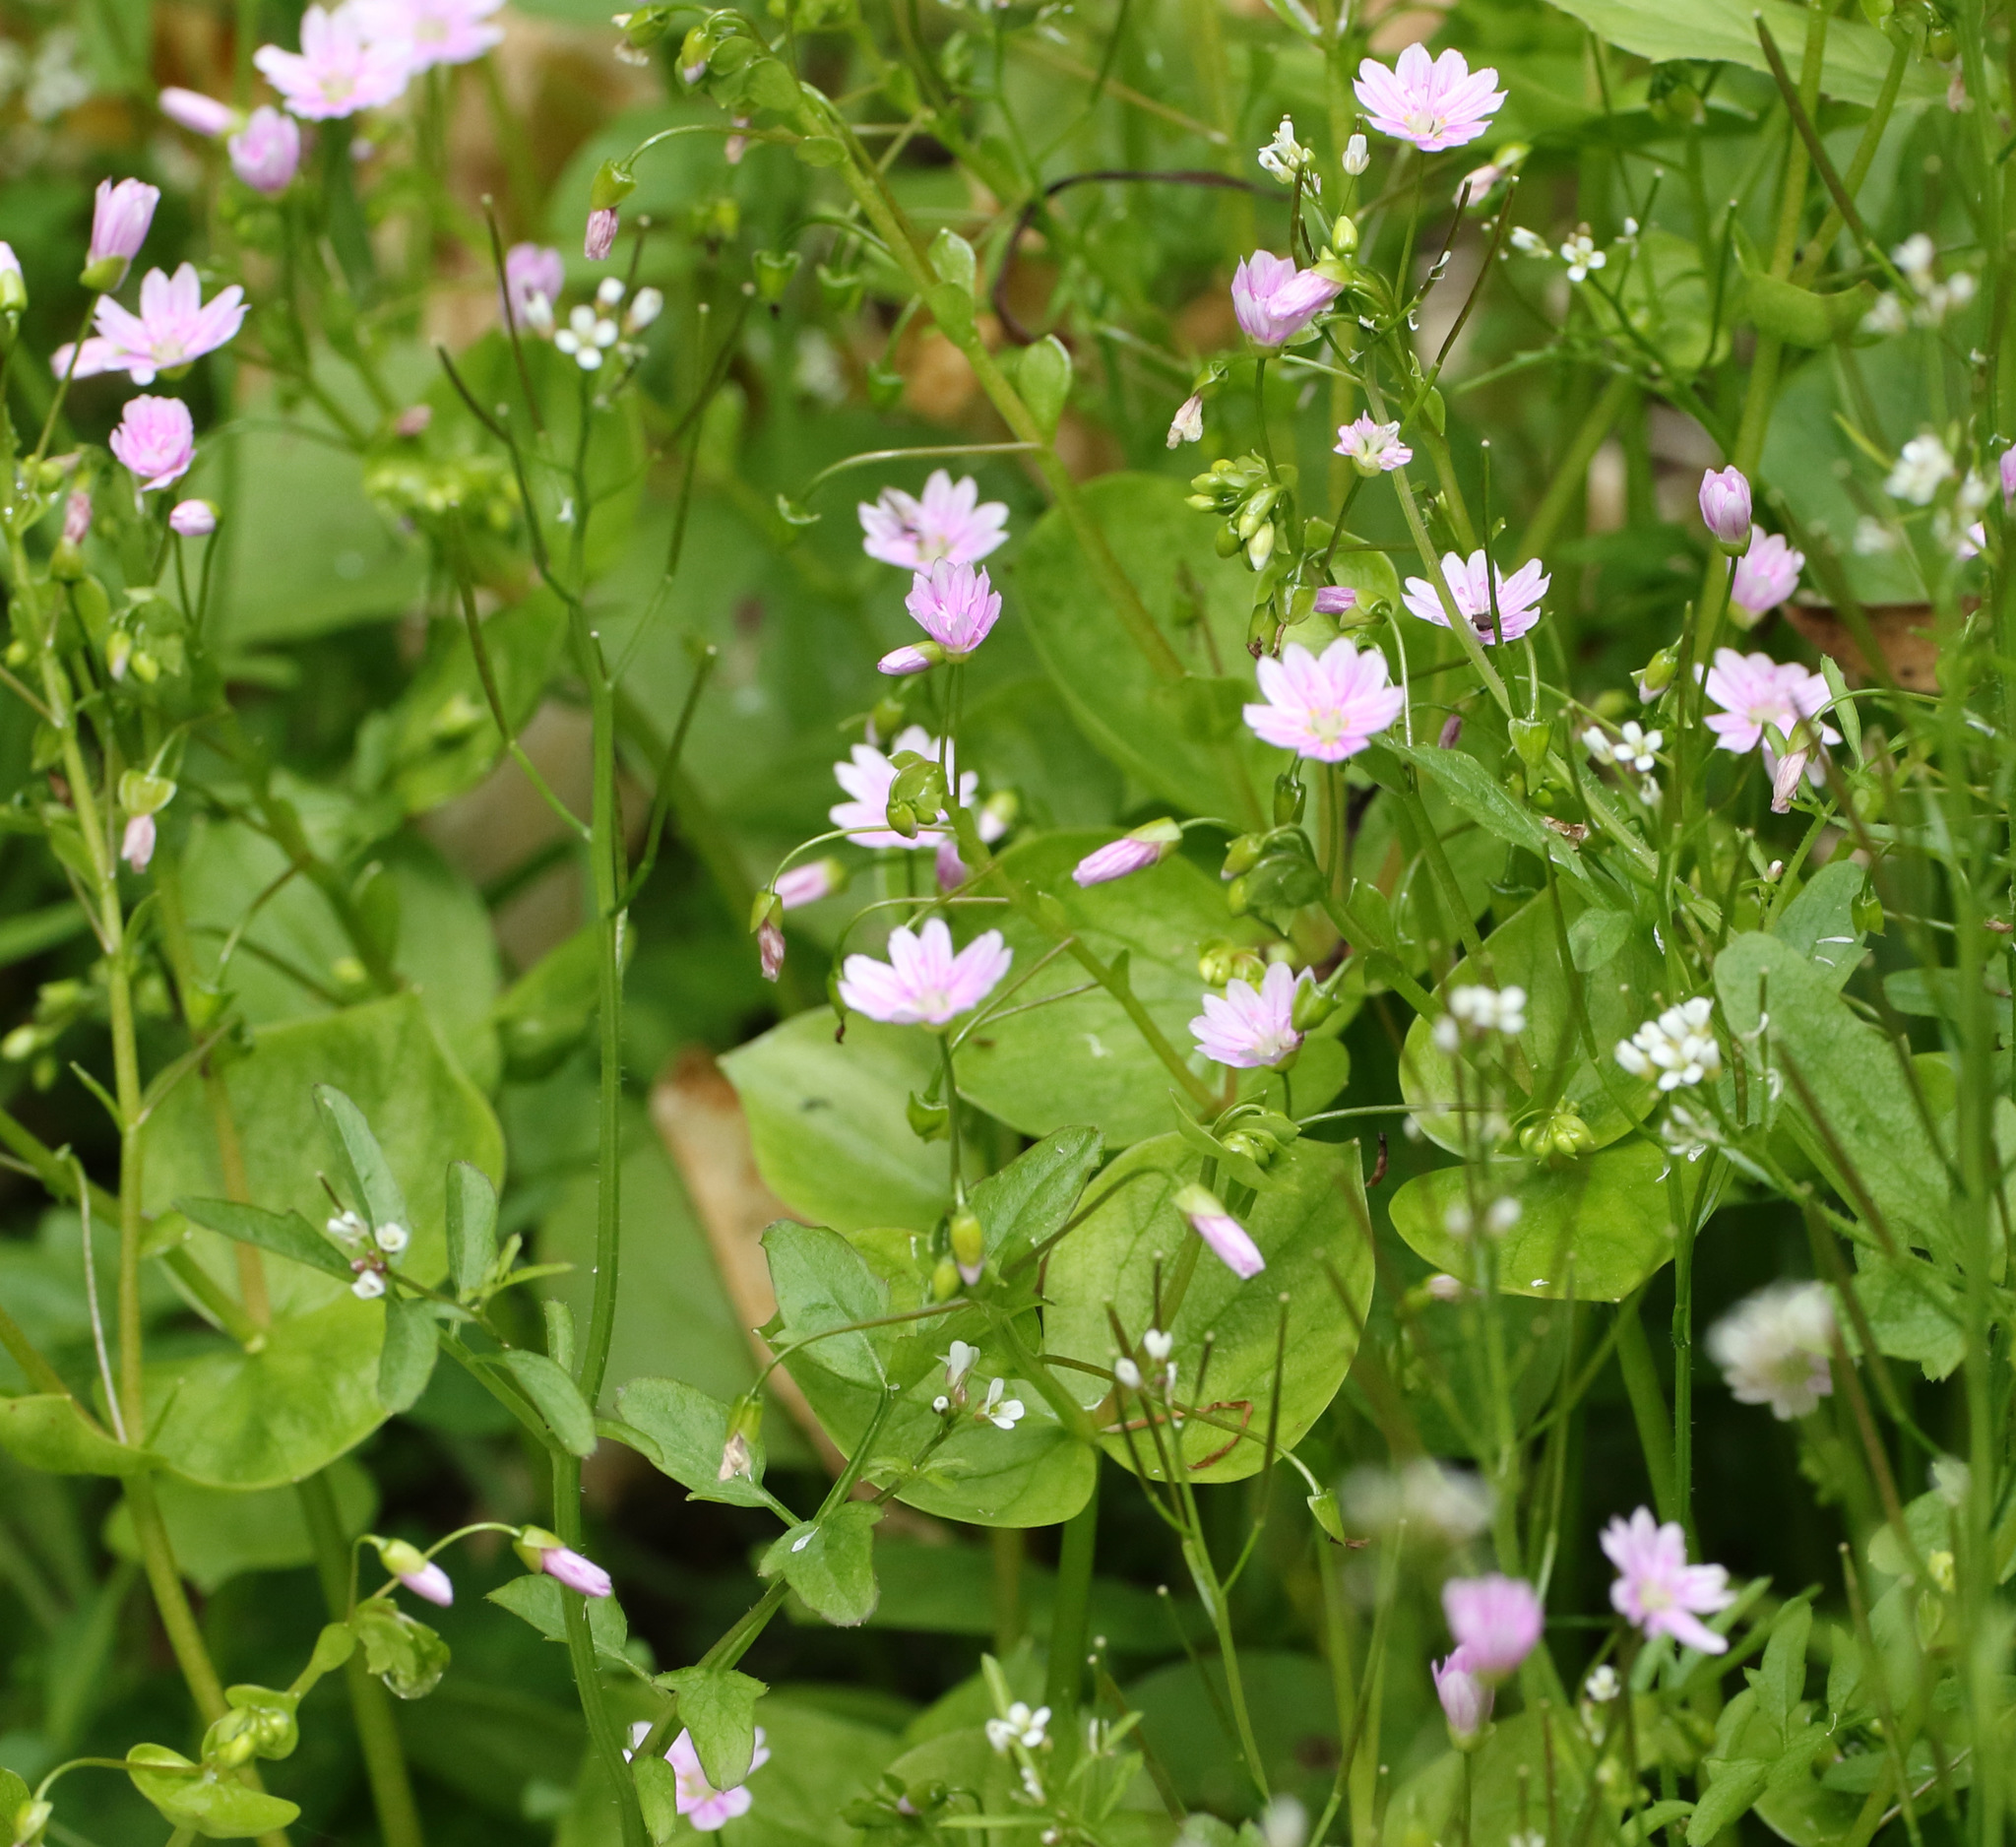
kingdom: Plantae
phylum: Tracheophyta
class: Magnoliopsida
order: Caryophyllales
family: Montiaceae
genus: Claytonia
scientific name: Claytonia sibirica
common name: Pink purslane
